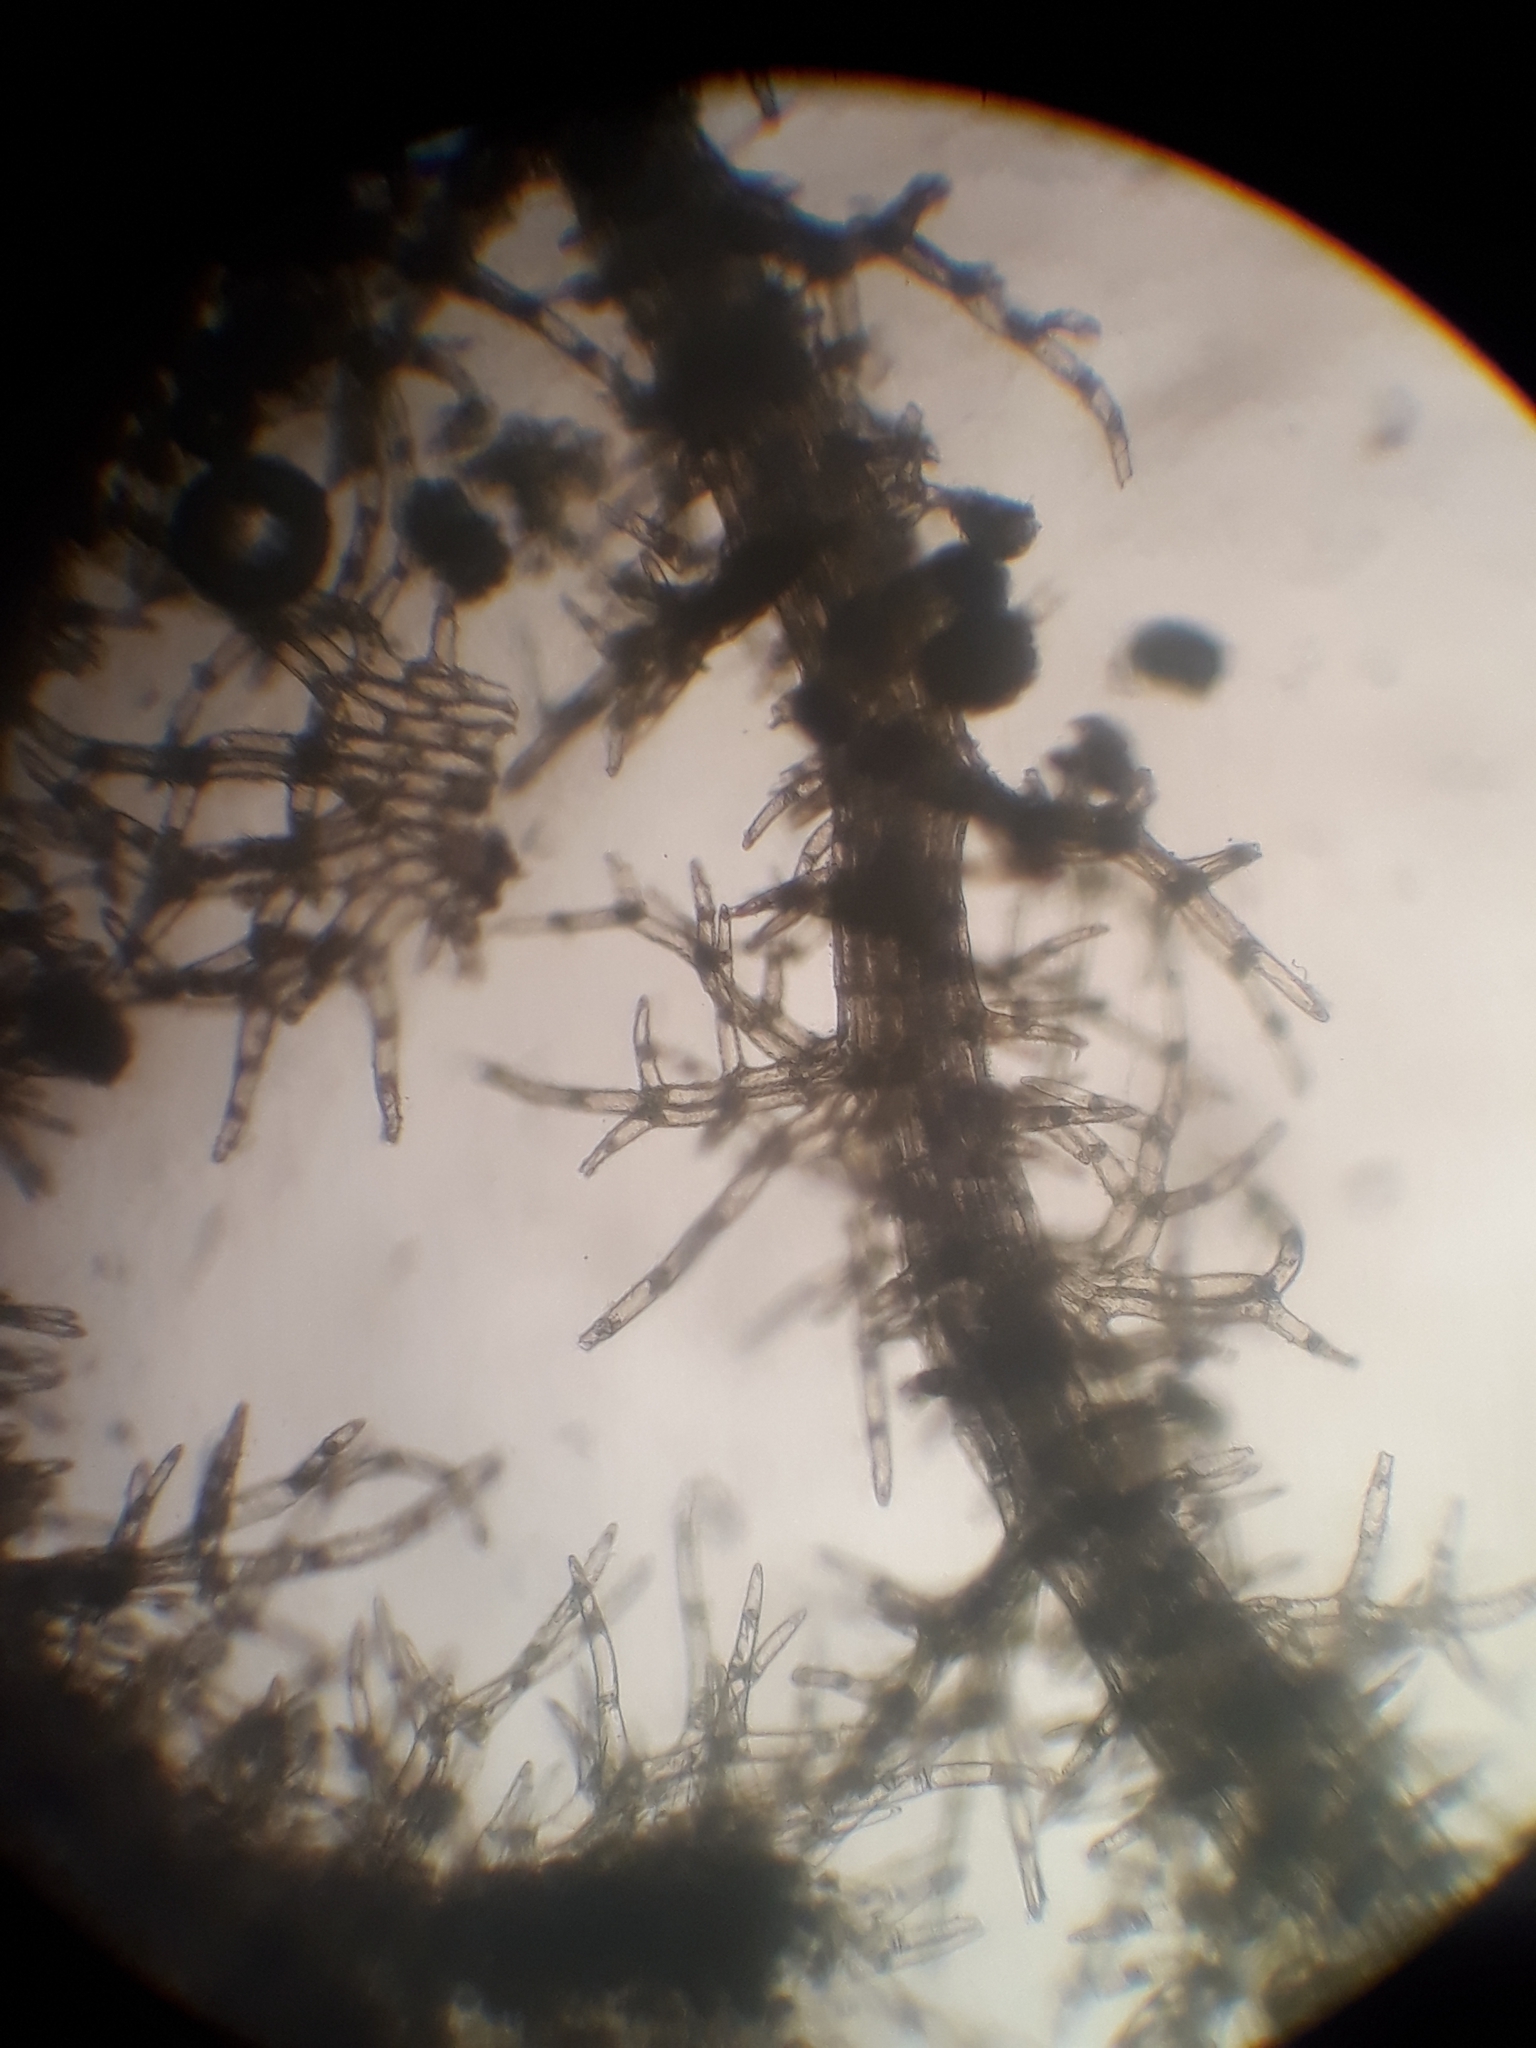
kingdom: Plantae
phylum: Marchantiophyta
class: Jungermanniopsida
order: Jungermanniales
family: Trichocoleaceae
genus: Eotrichocolea
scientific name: Eotrichocolea polyacantha
